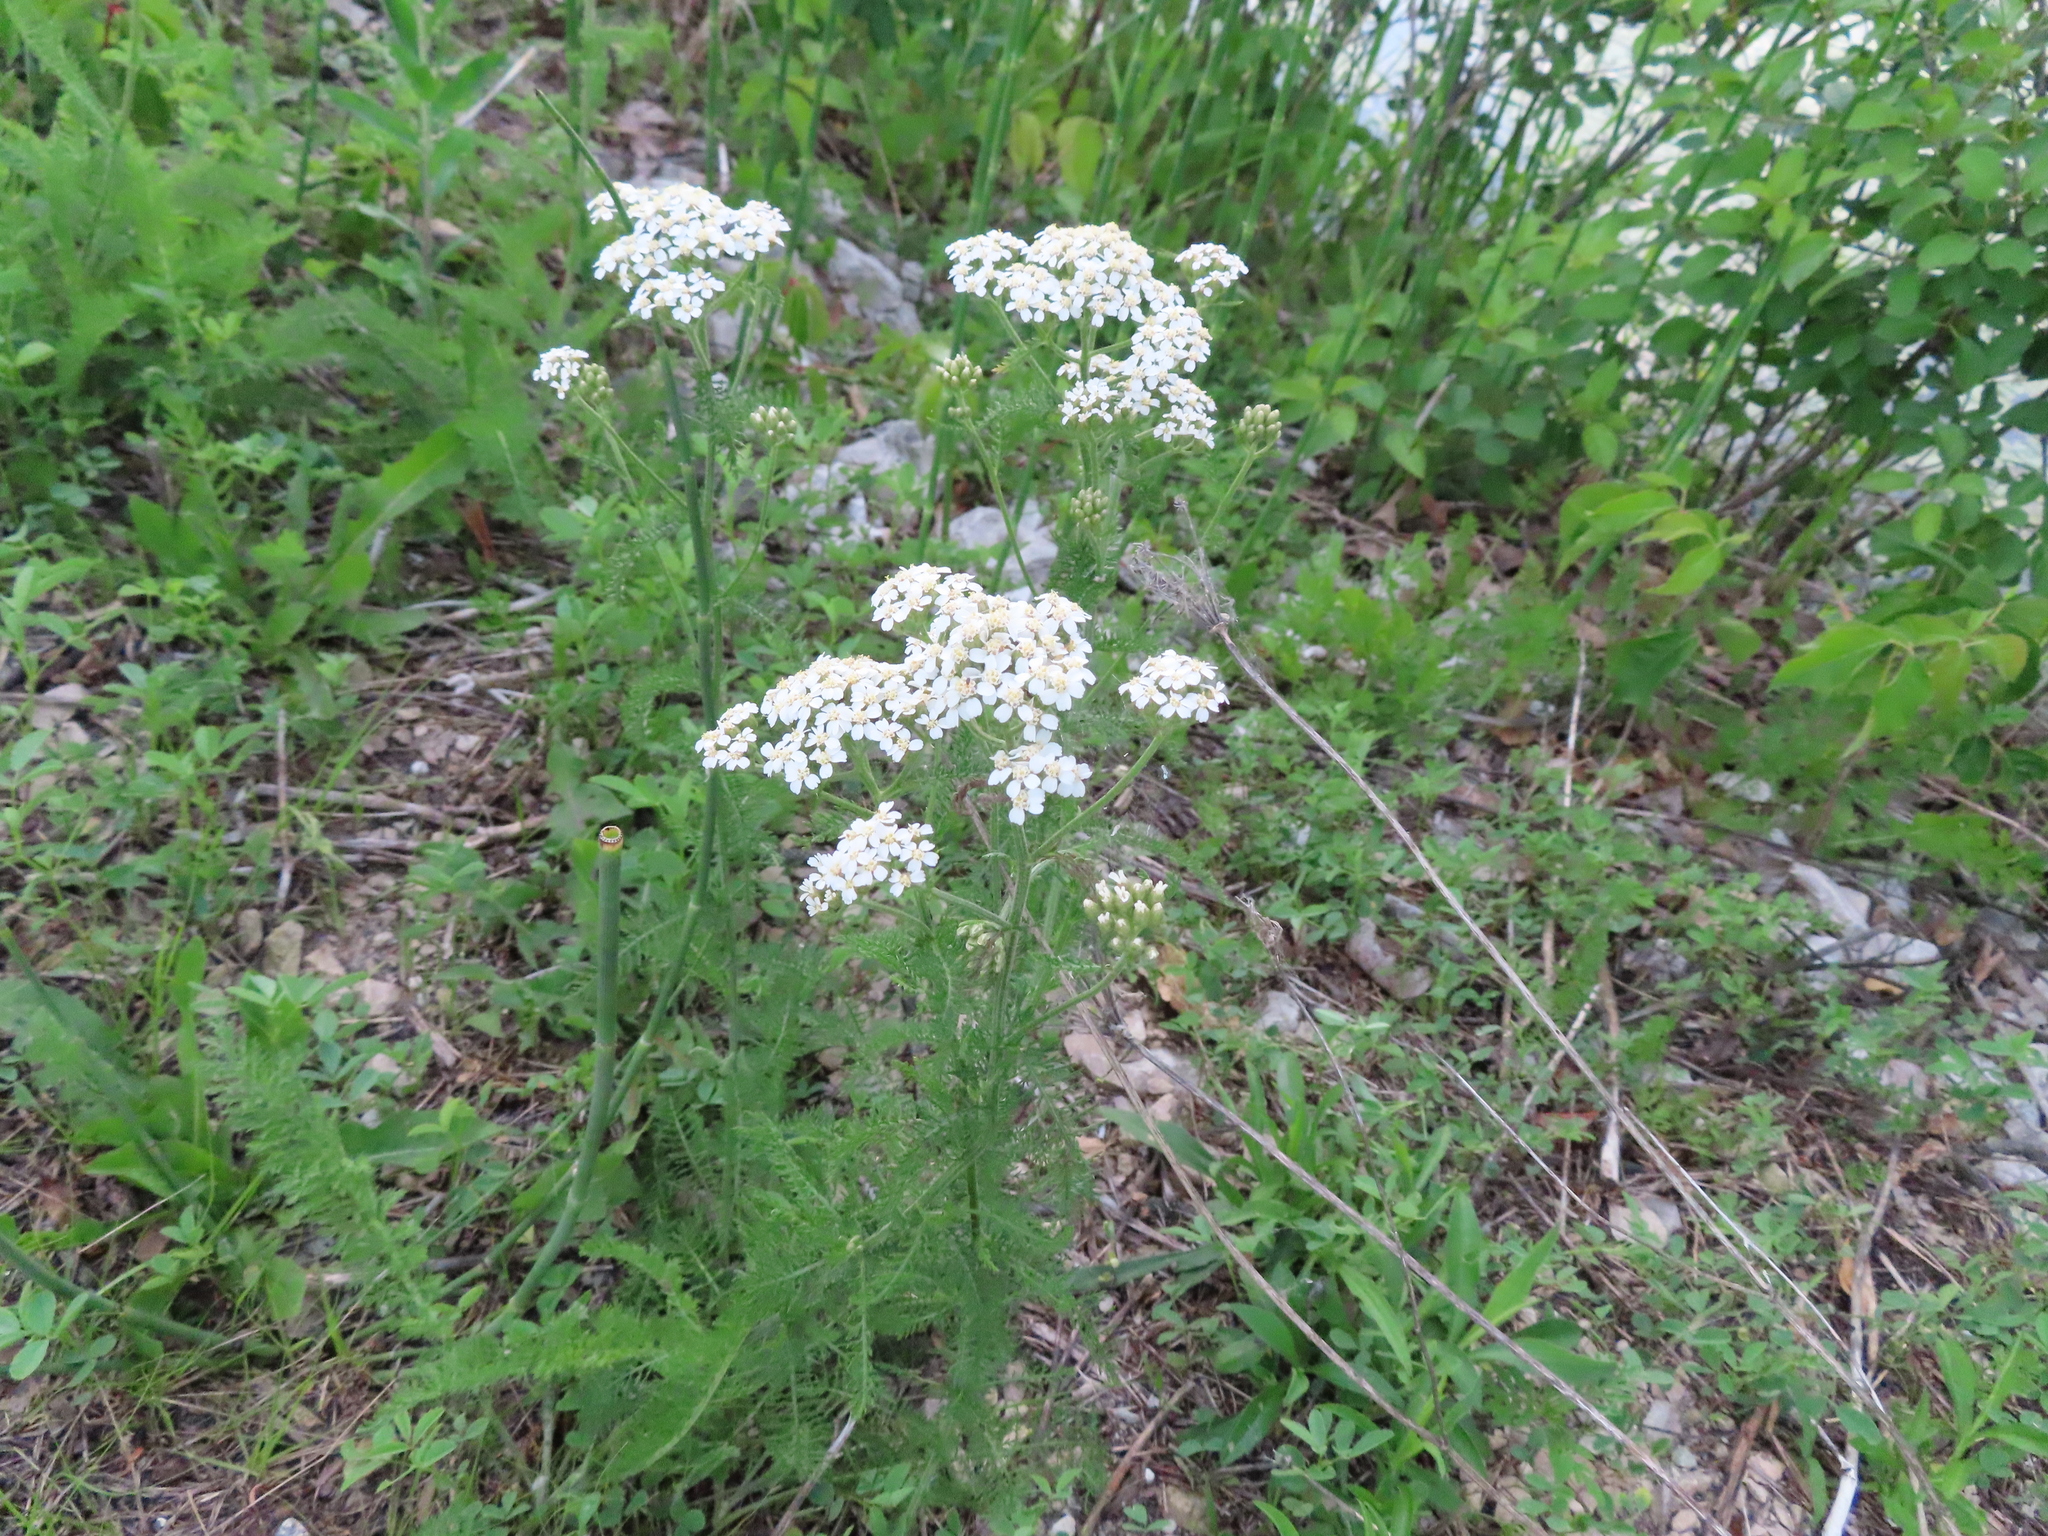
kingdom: Plantae
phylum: Tracheophyta
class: Magnoliopsida
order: Asterales
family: Asteraceae
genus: Achillea
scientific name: Achillea millefolium
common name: Yarrow
